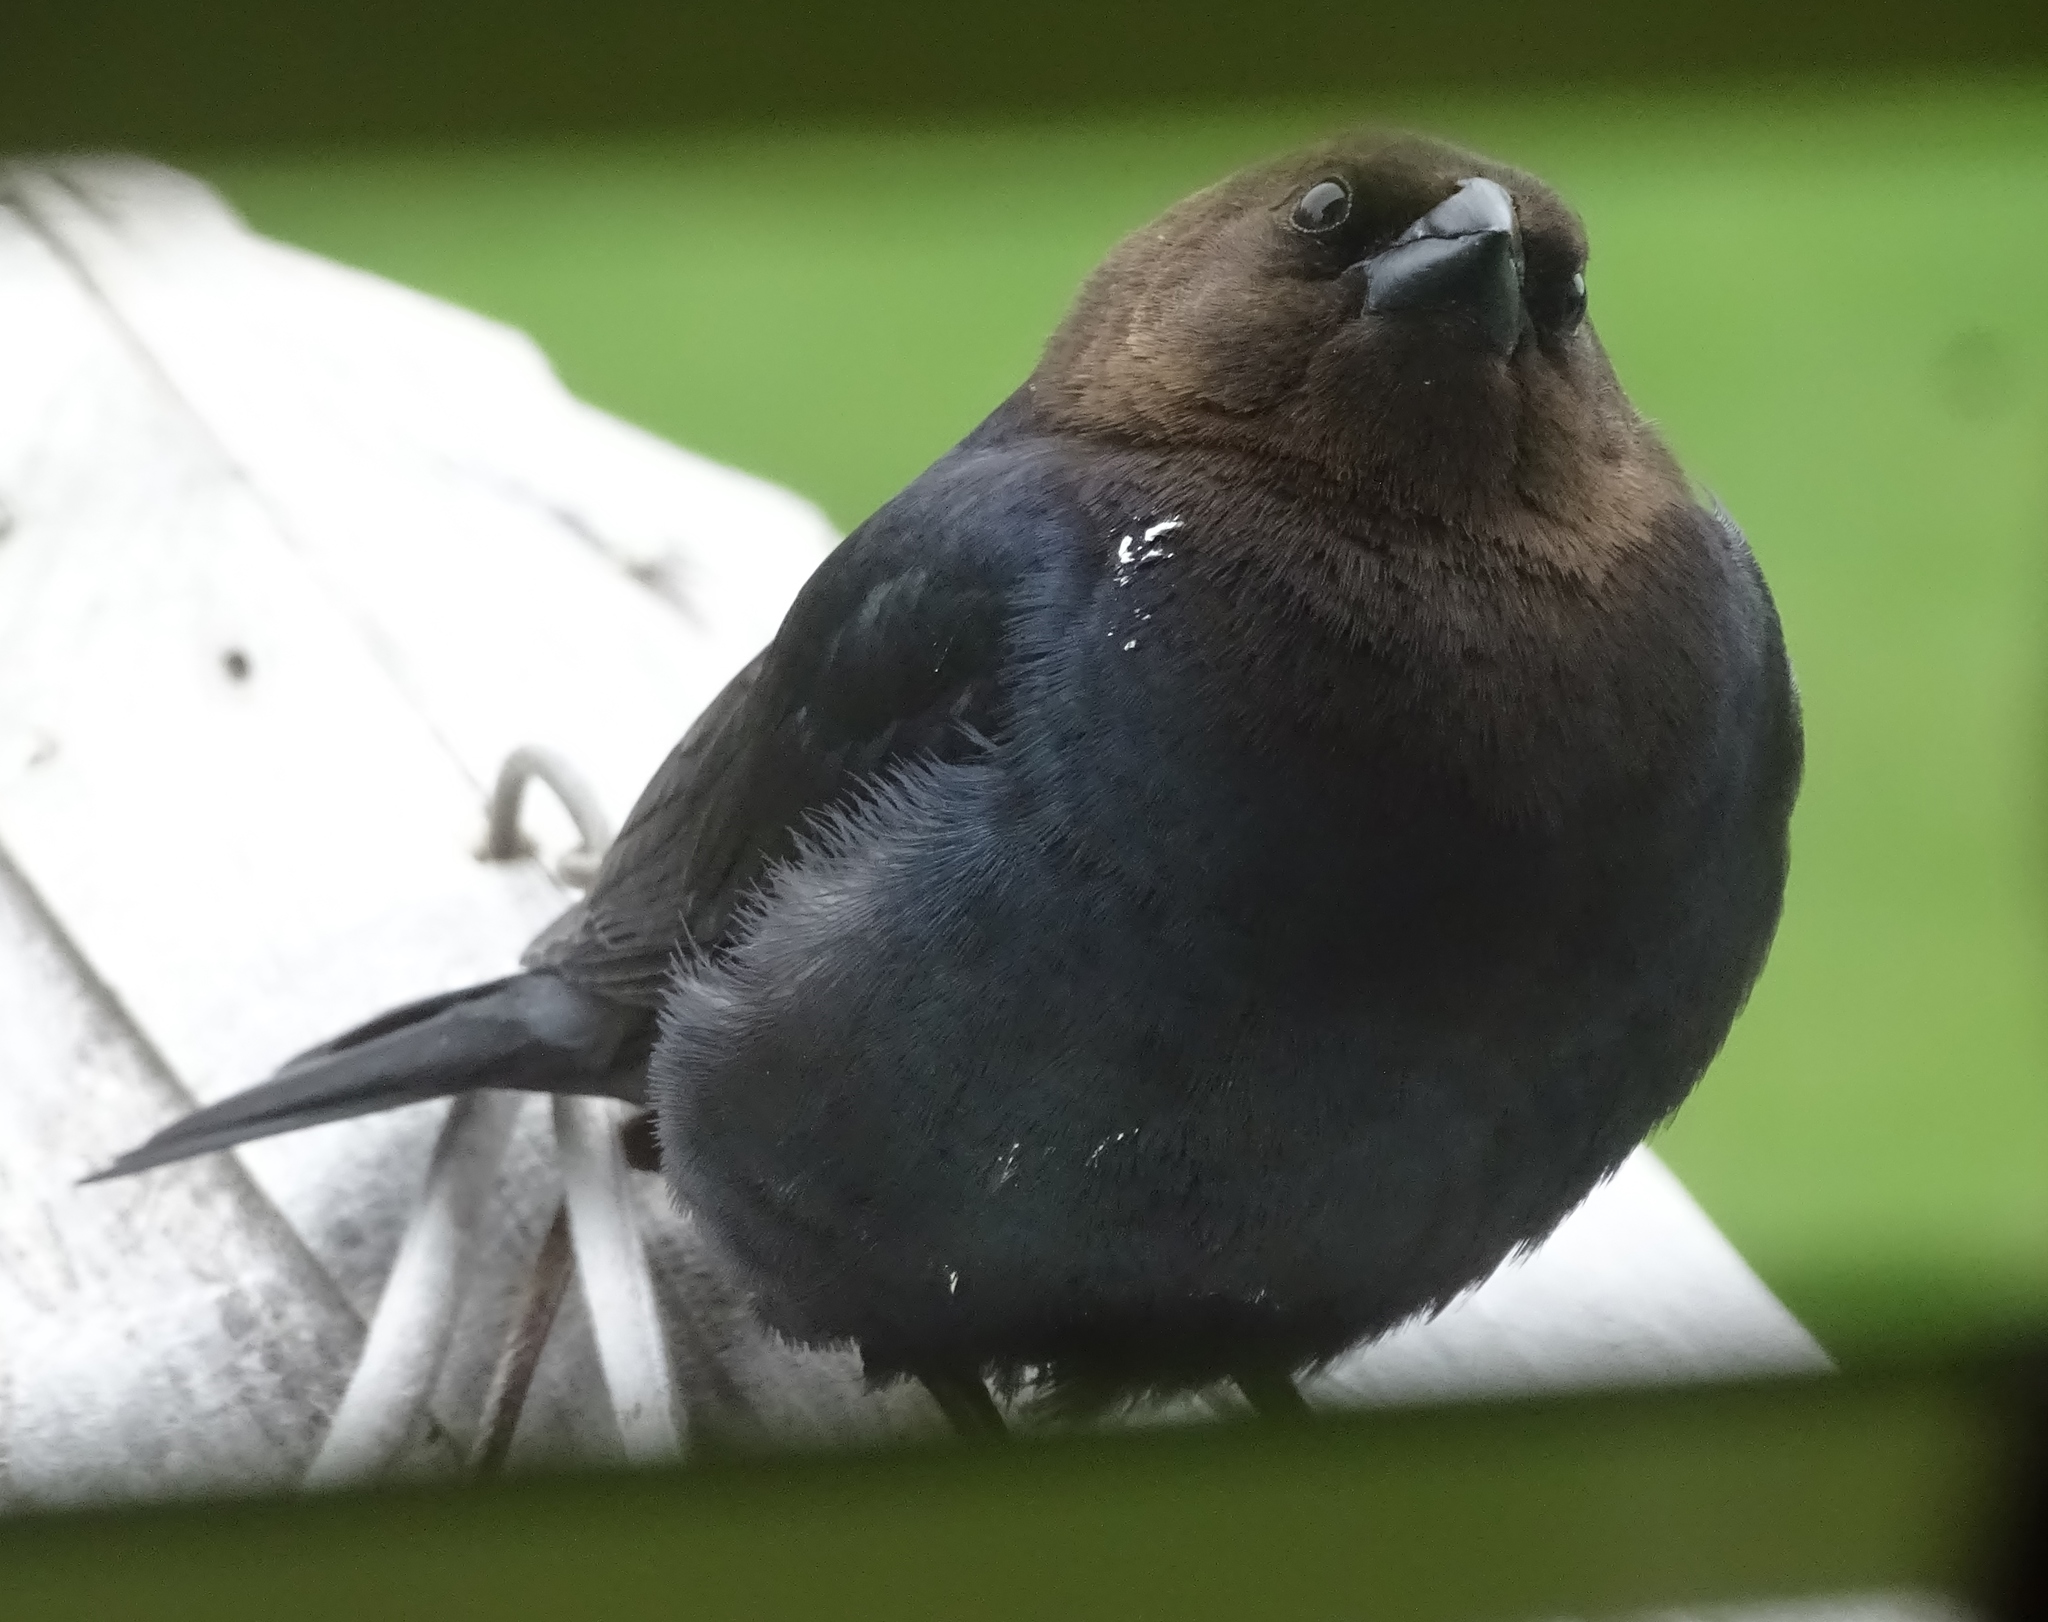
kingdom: Animalia
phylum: Chordata
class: Aves
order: Passeriformes
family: Icteridae
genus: Molothrus
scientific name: Molothrus ater
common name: Brown-headed cowbird
